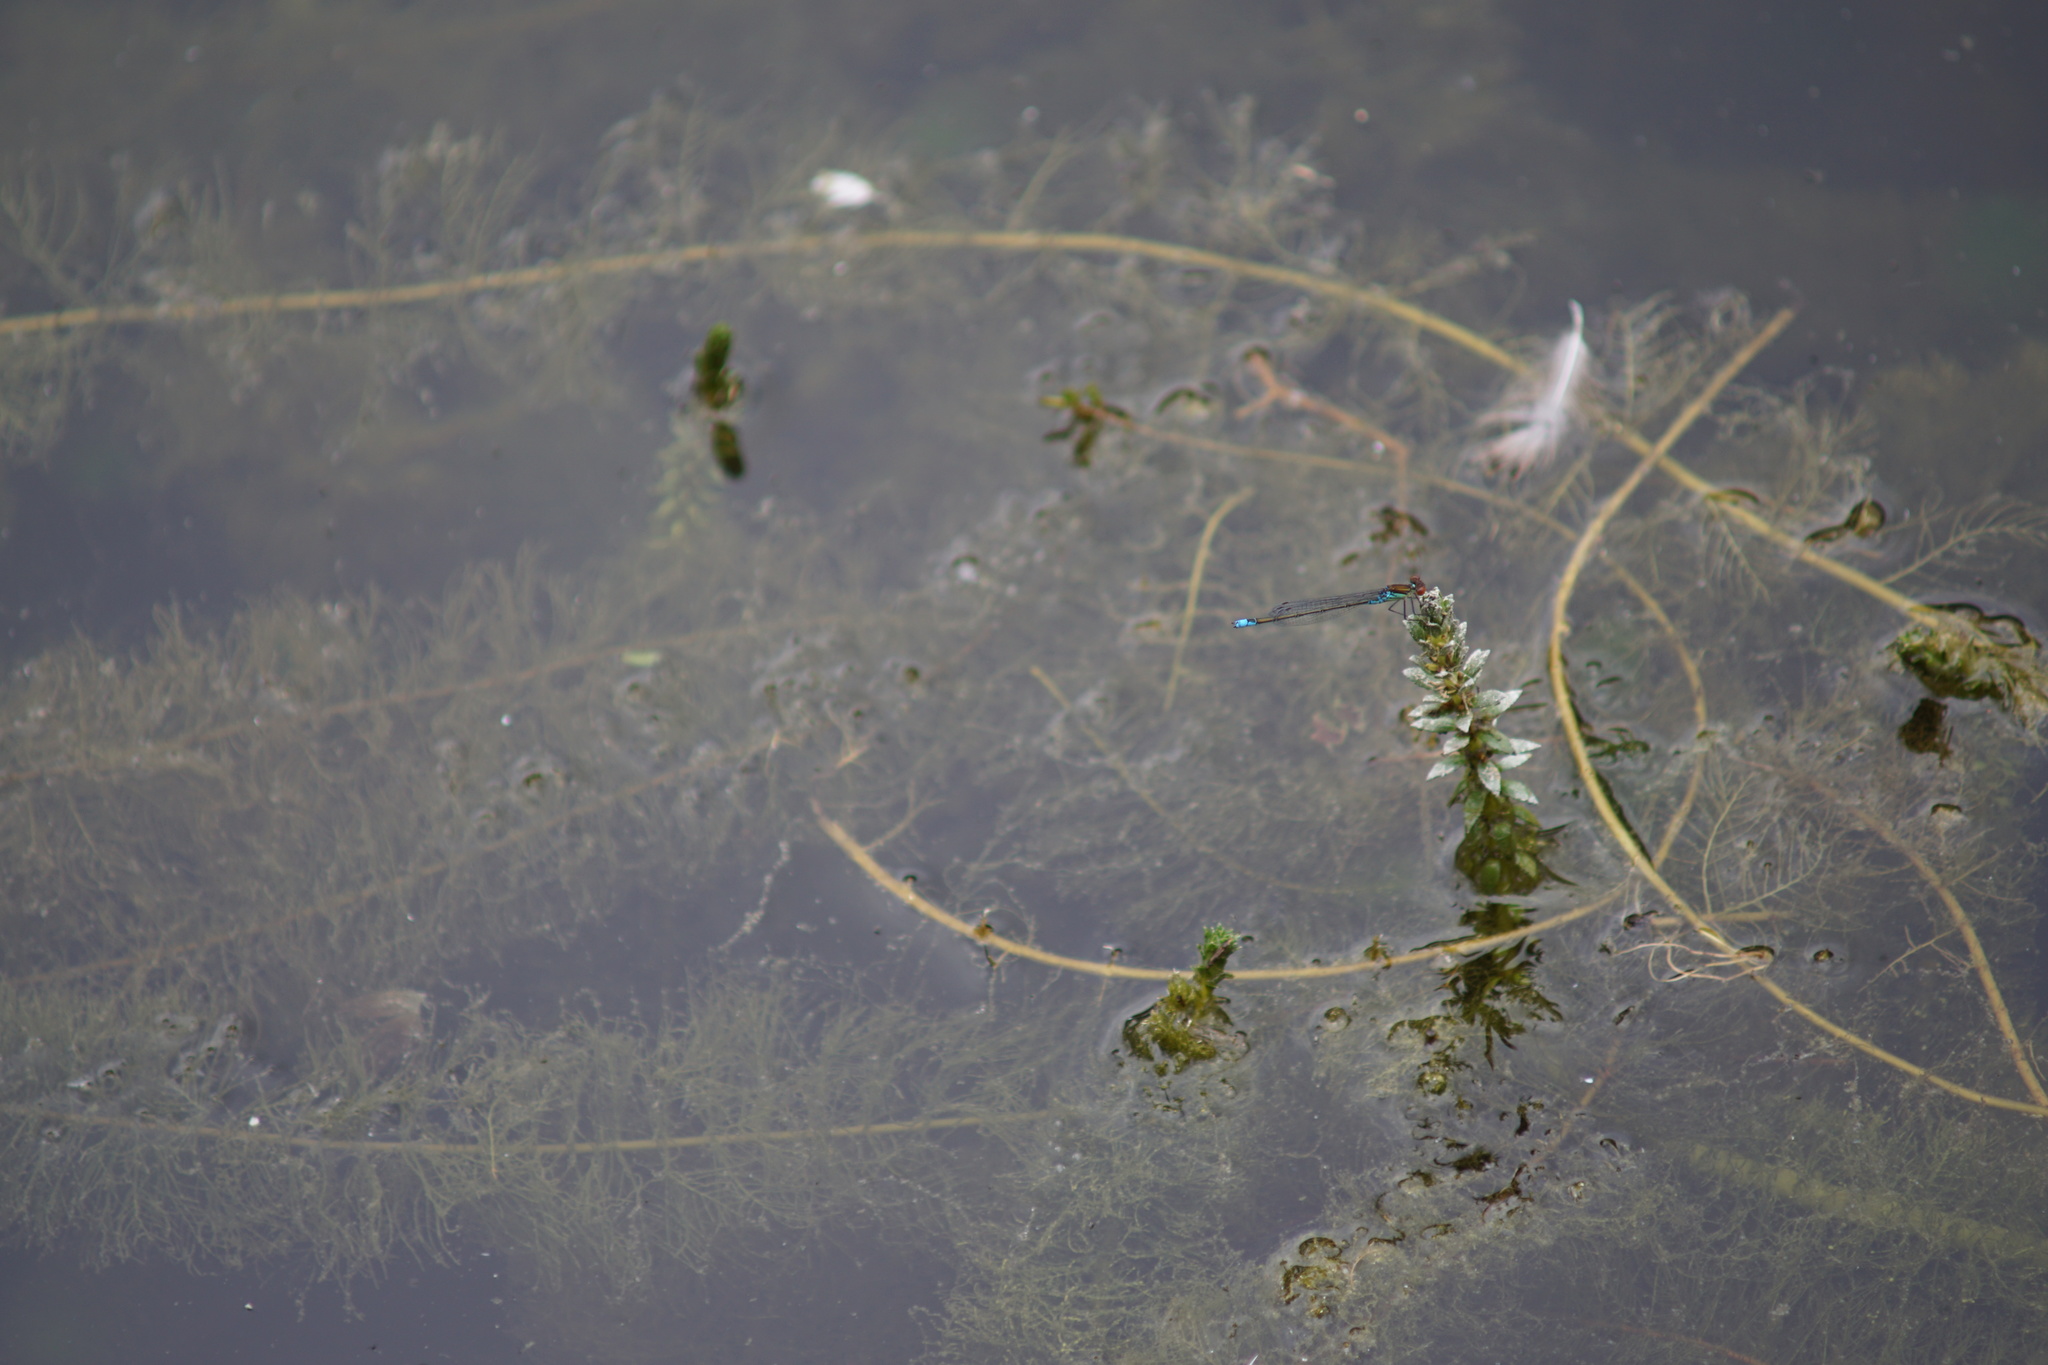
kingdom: Animalia
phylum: Arthropoda
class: Insecta
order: Odonata
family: Coenagrionidae
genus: Erythromma
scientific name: Erythromma viridulum
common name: Small red-eyed damselfly
